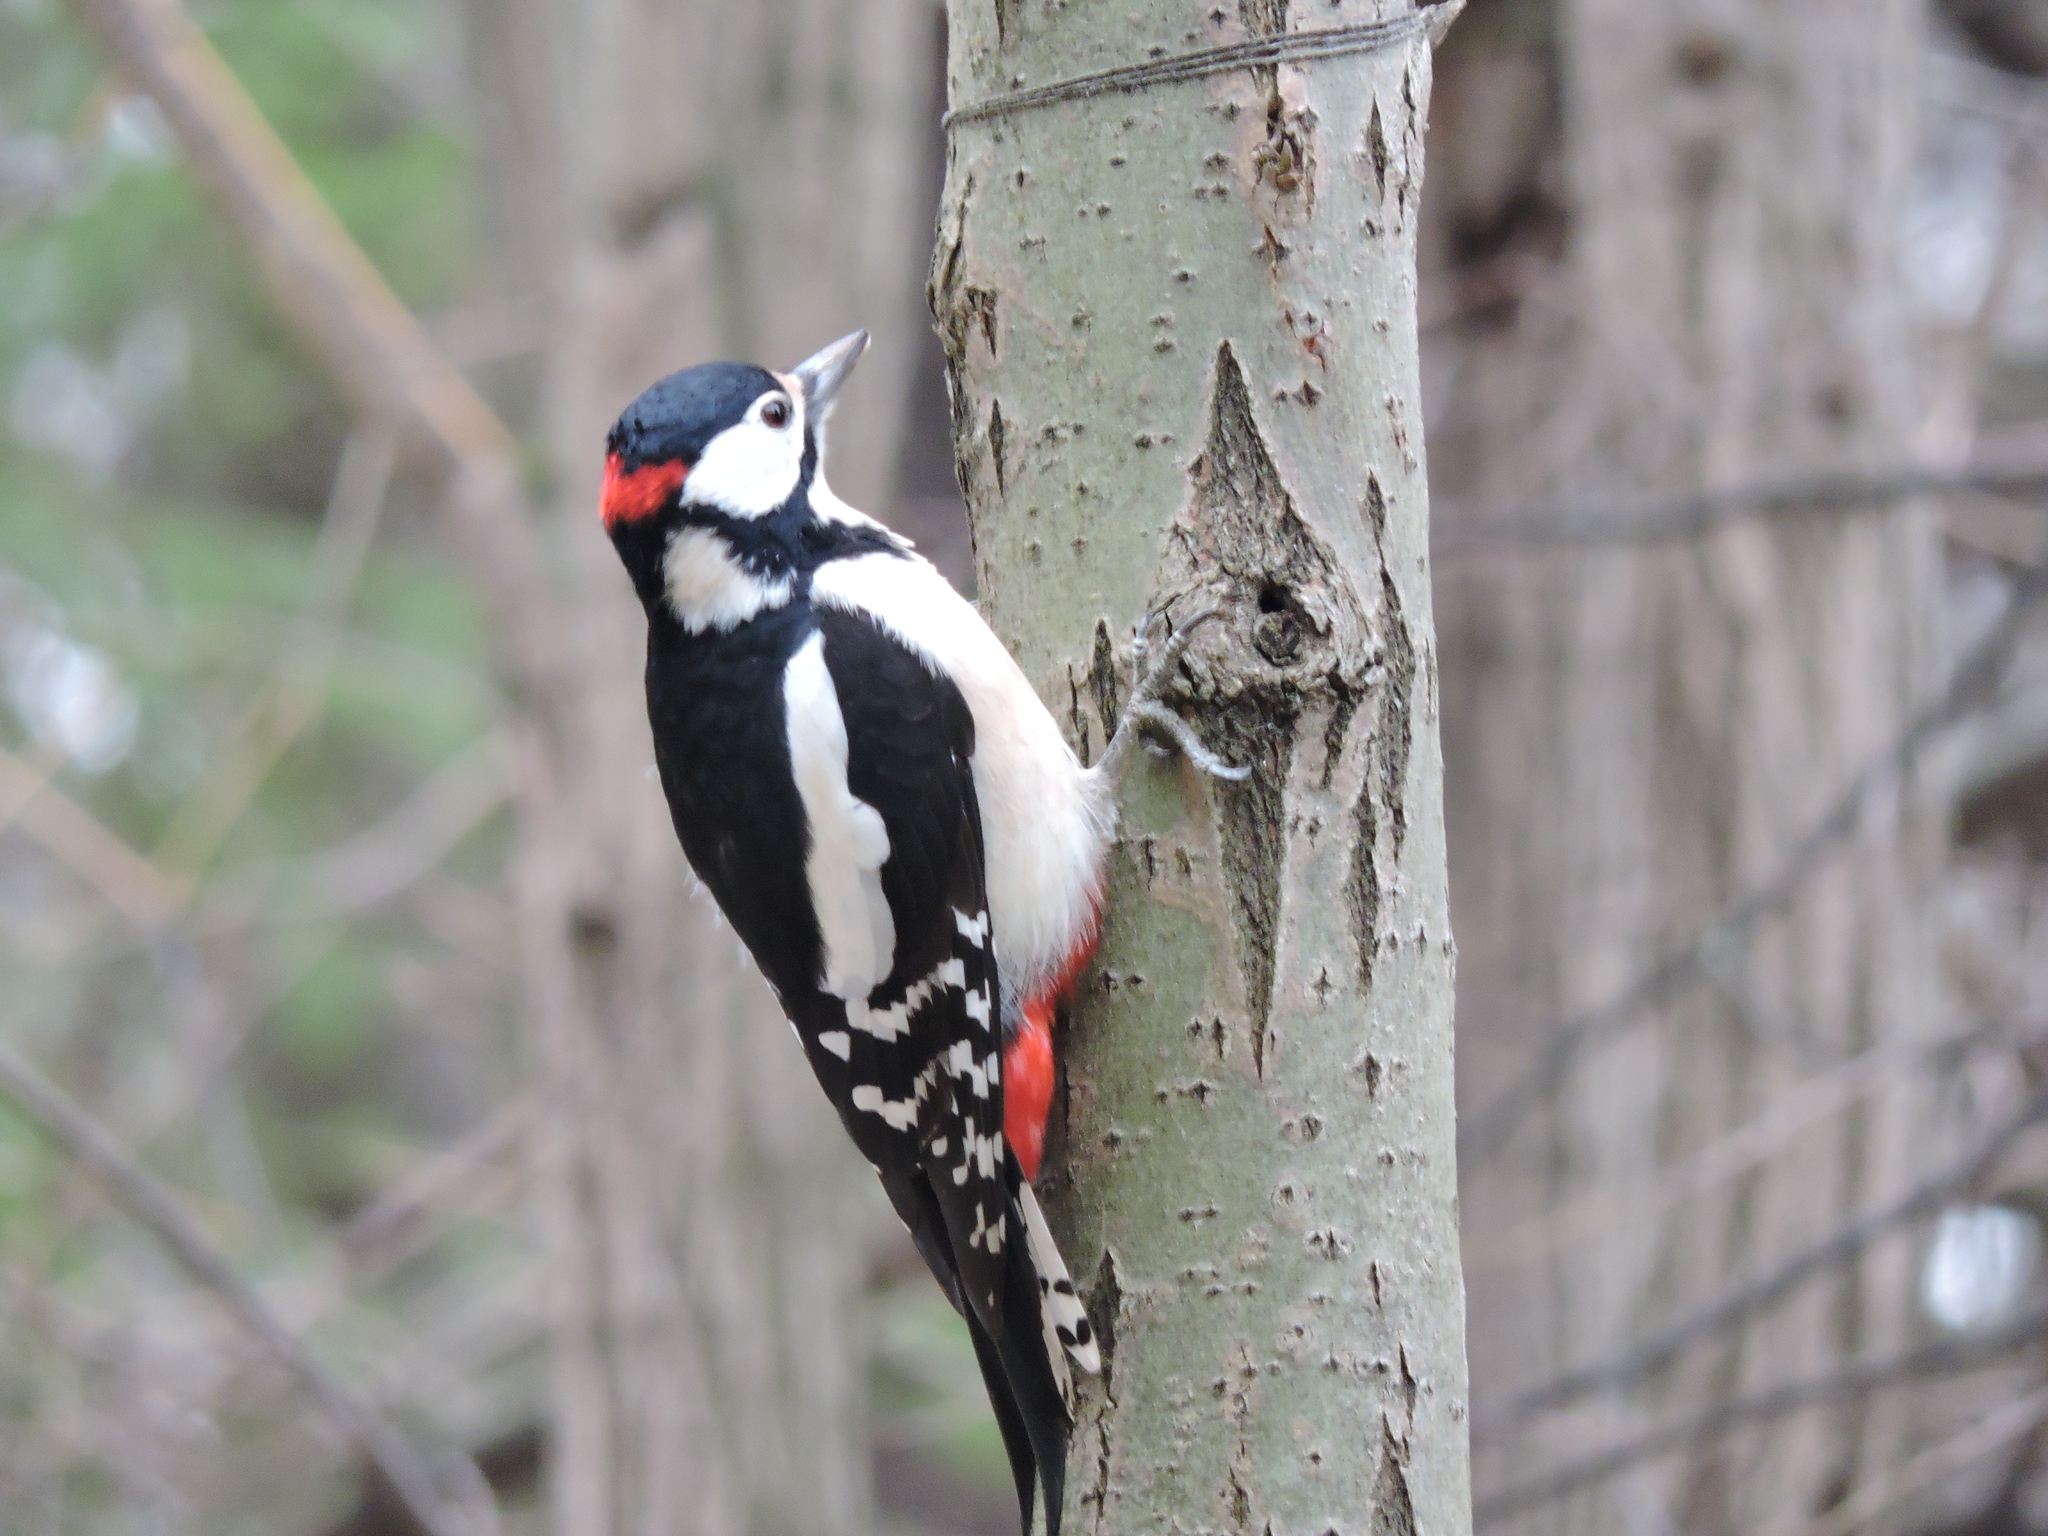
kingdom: Animalia
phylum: Chordata
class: Aves
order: Piciformes
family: Picidae
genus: Dendrocopos
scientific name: Dendrocopos major
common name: Great spotted woodpecker
